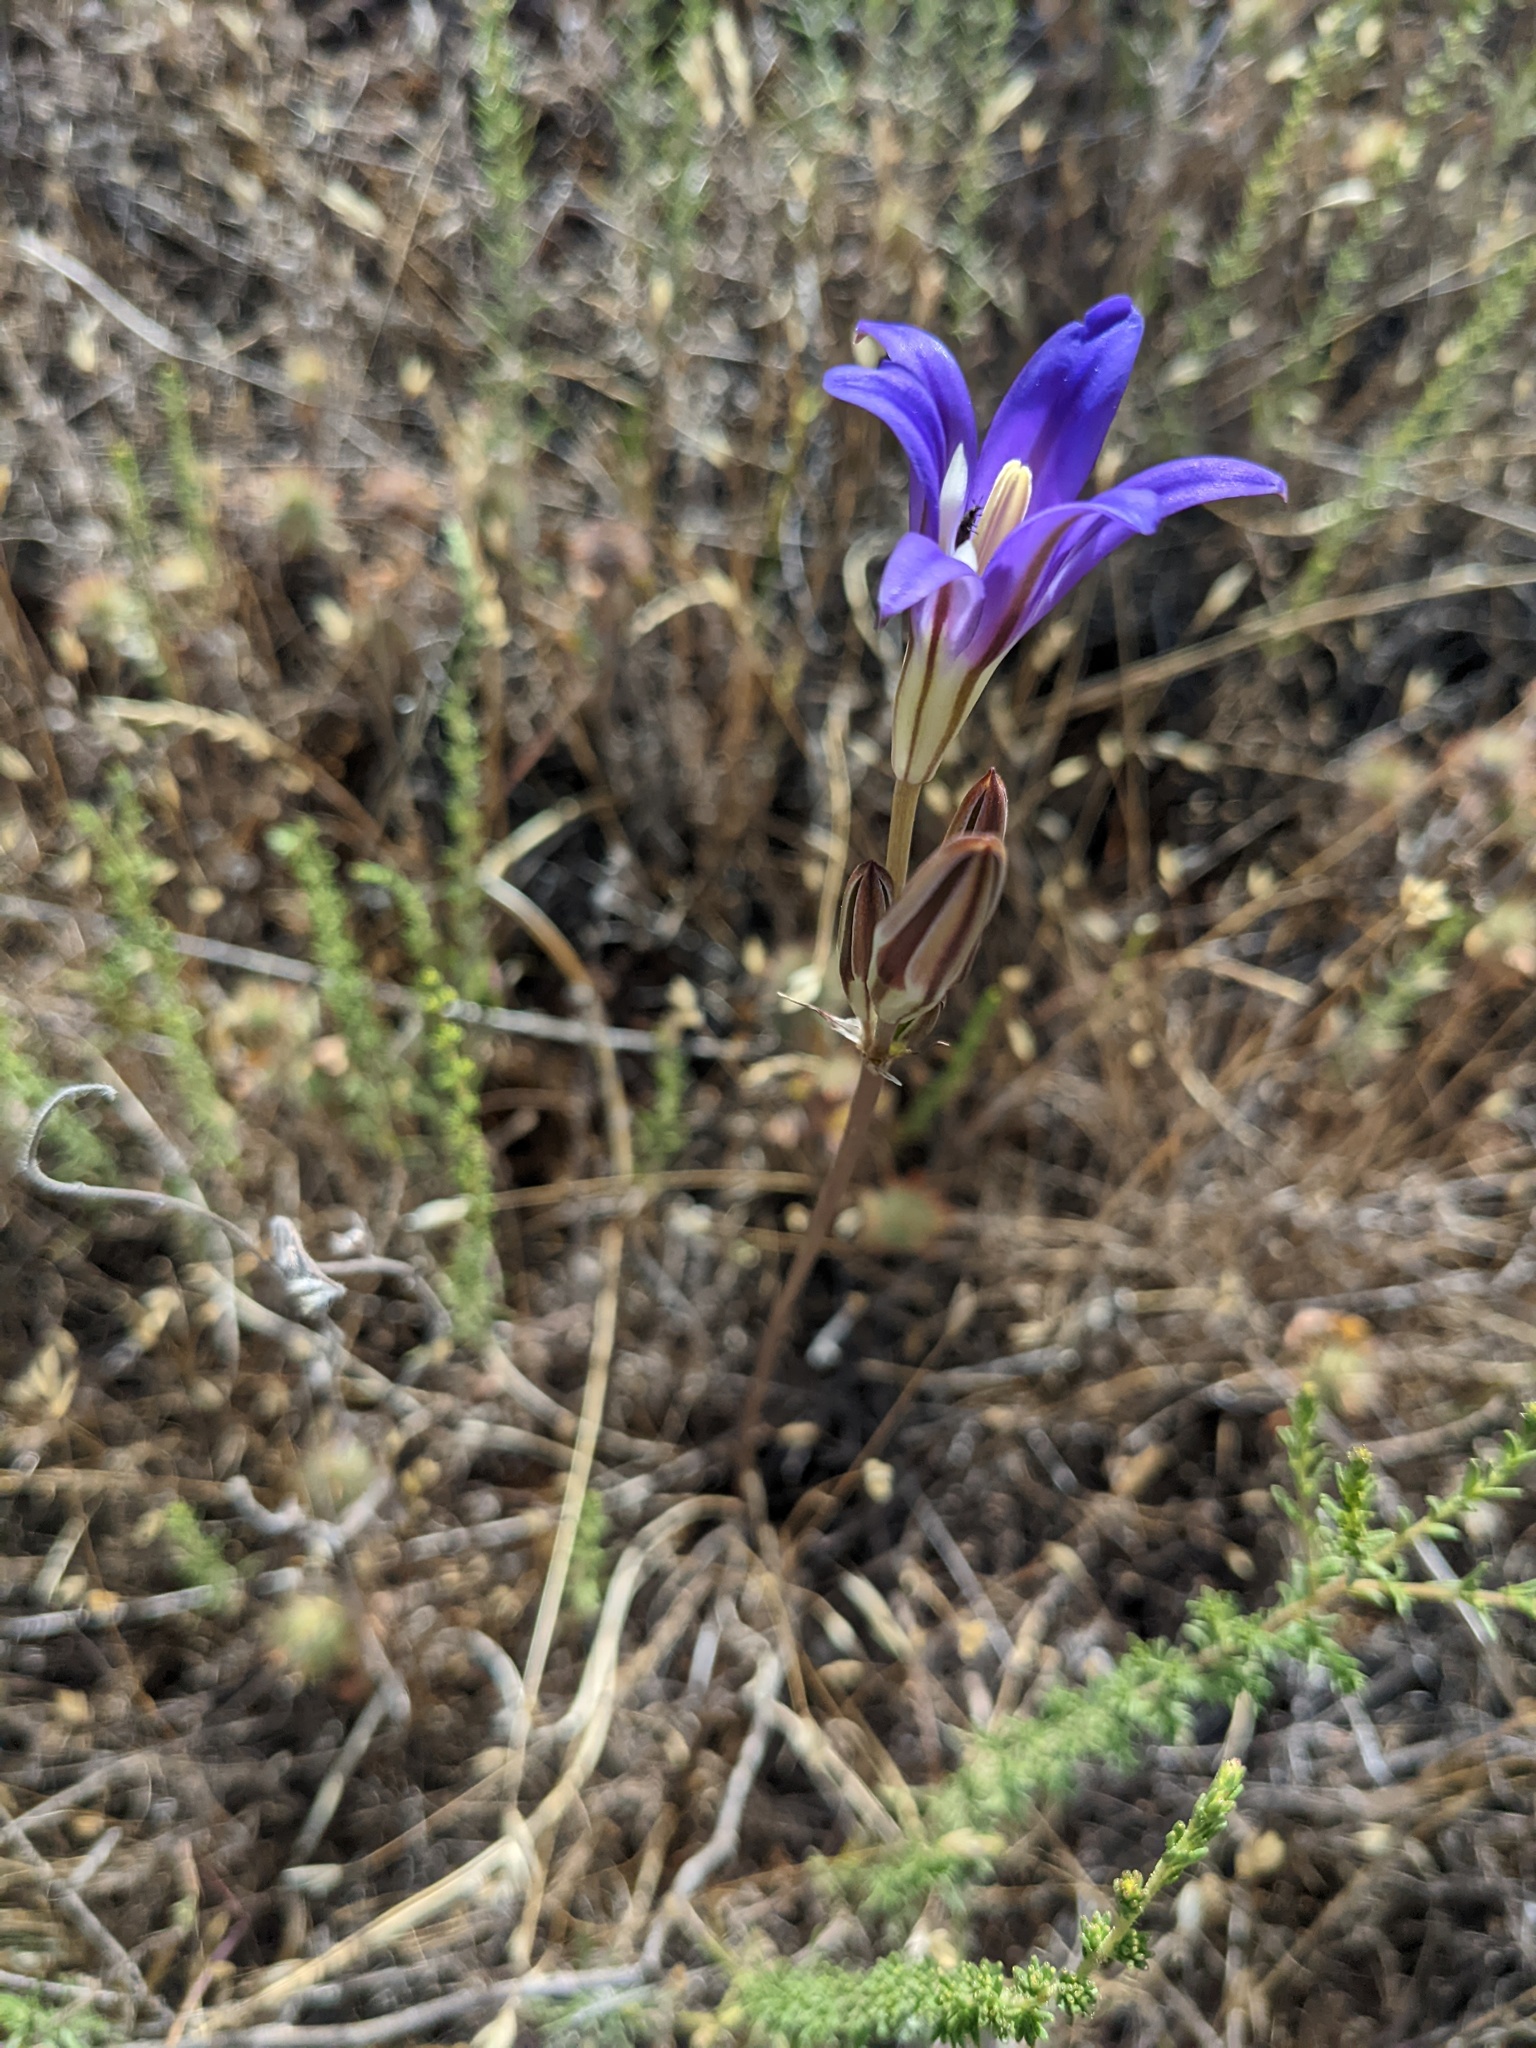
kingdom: Plantae
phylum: Tracheophyta
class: Liliopsida
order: Asparagales
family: Asparagaceae
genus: Brodiaea
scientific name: Brodiaea elegans
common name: Elegant cluster-lily
